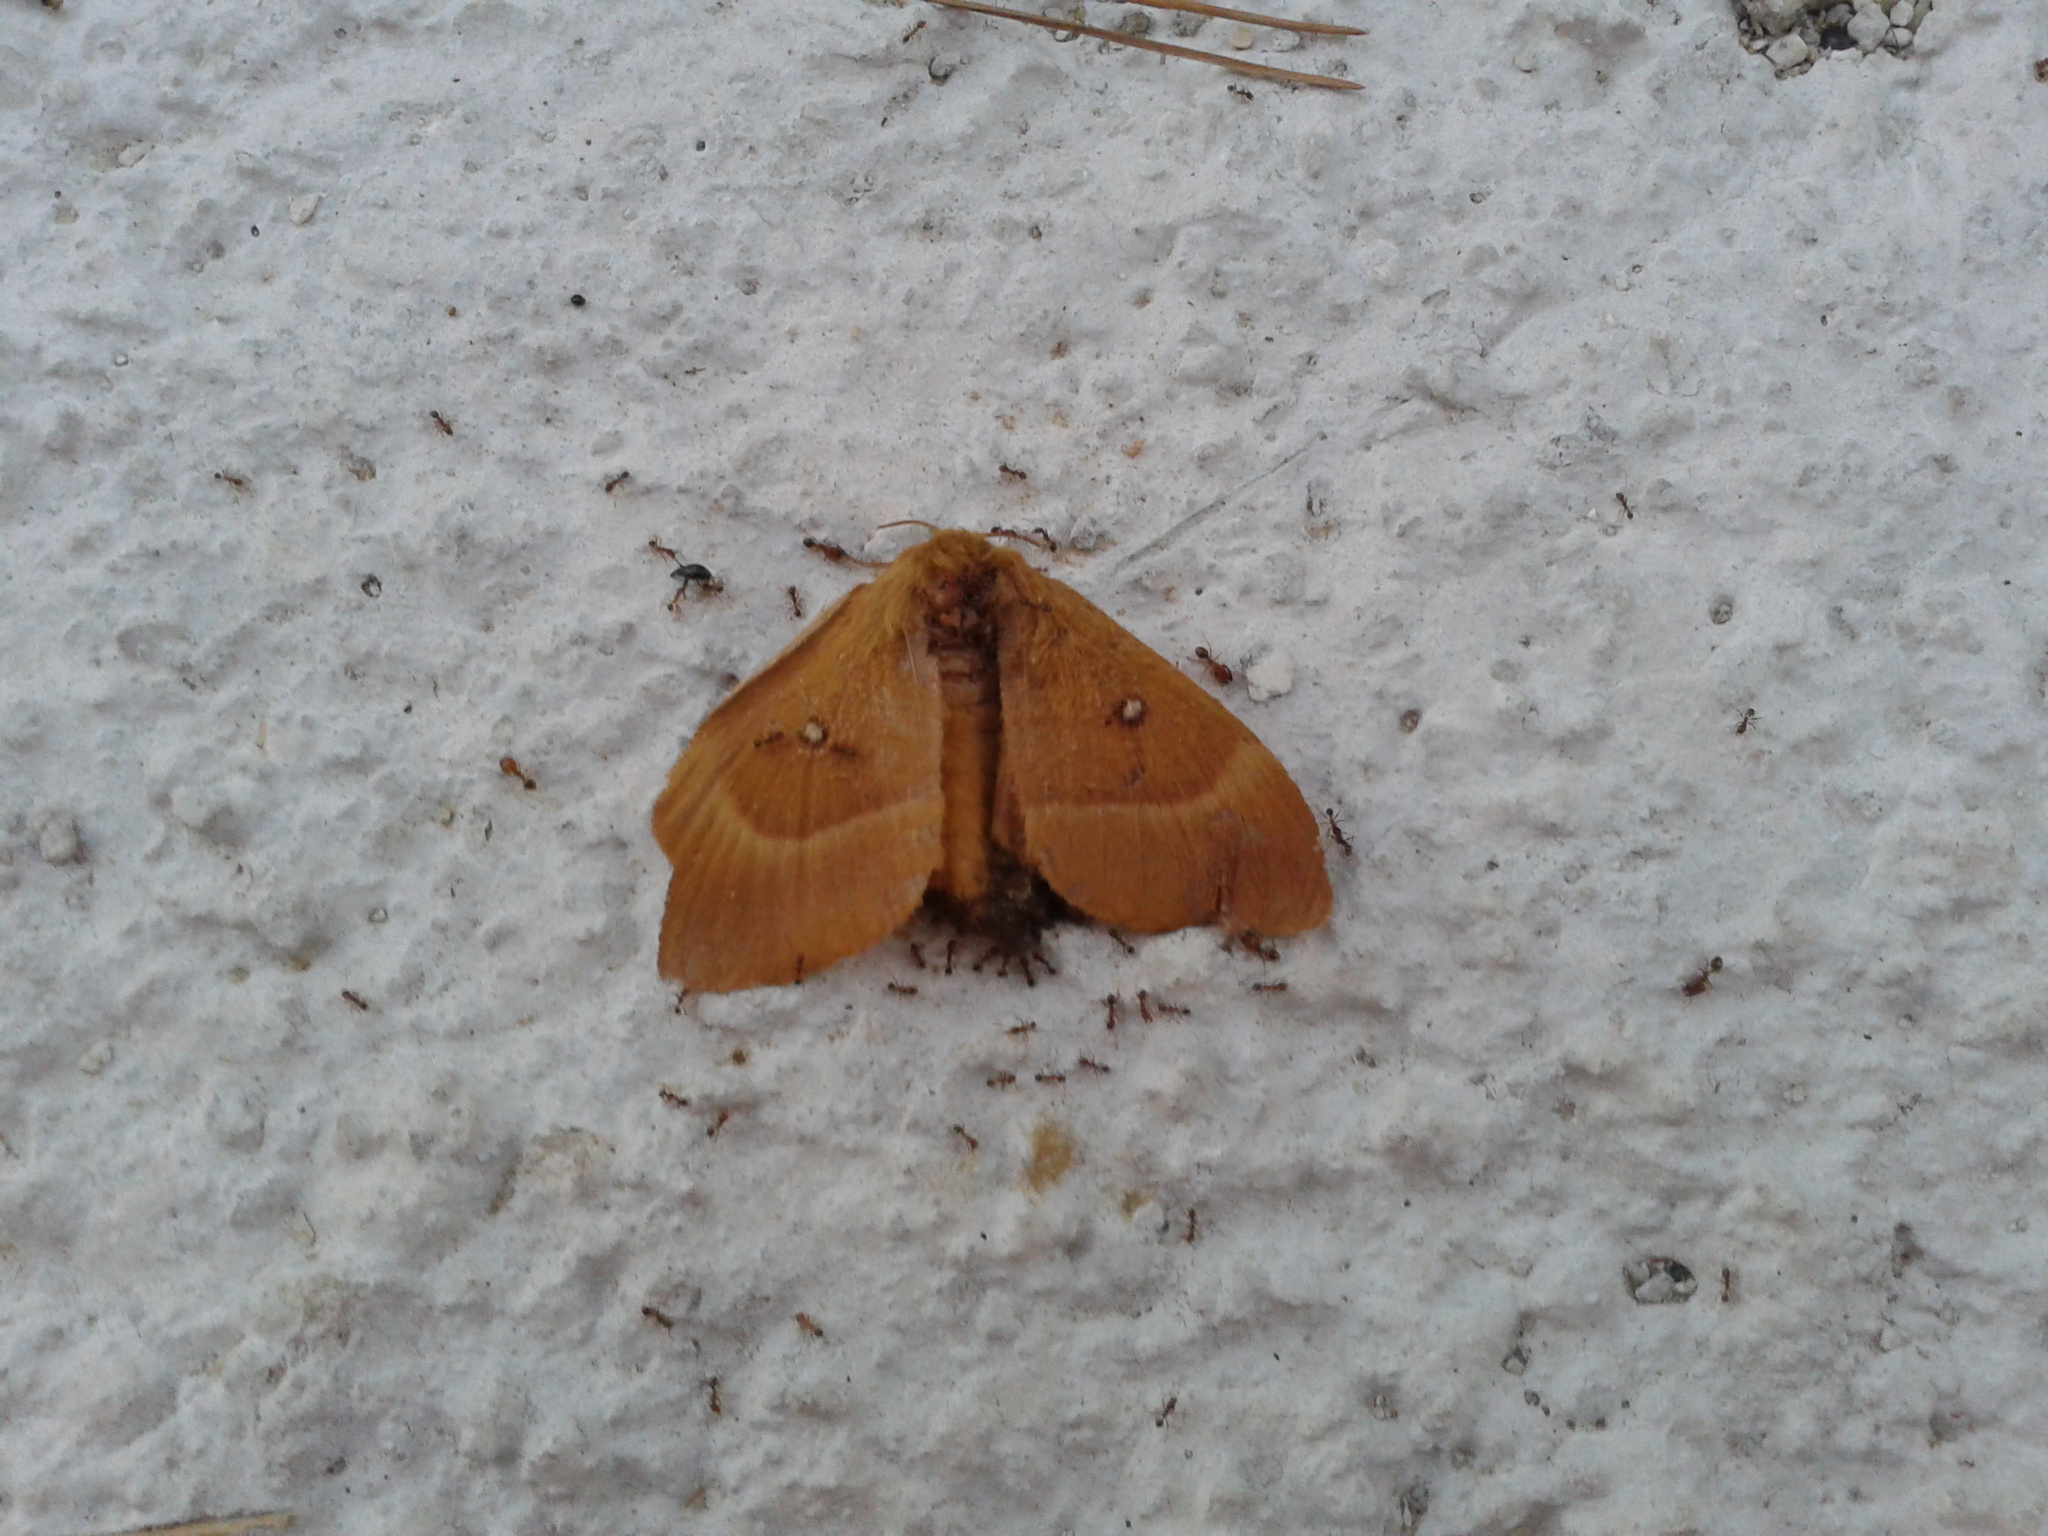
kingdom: Animalia
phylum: Arthropoda
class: Insecta
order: Lepidoptera
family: Lasiocampidae
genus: Lasiocampa
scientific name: Lasiocampa quercus
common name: Oak eggar
